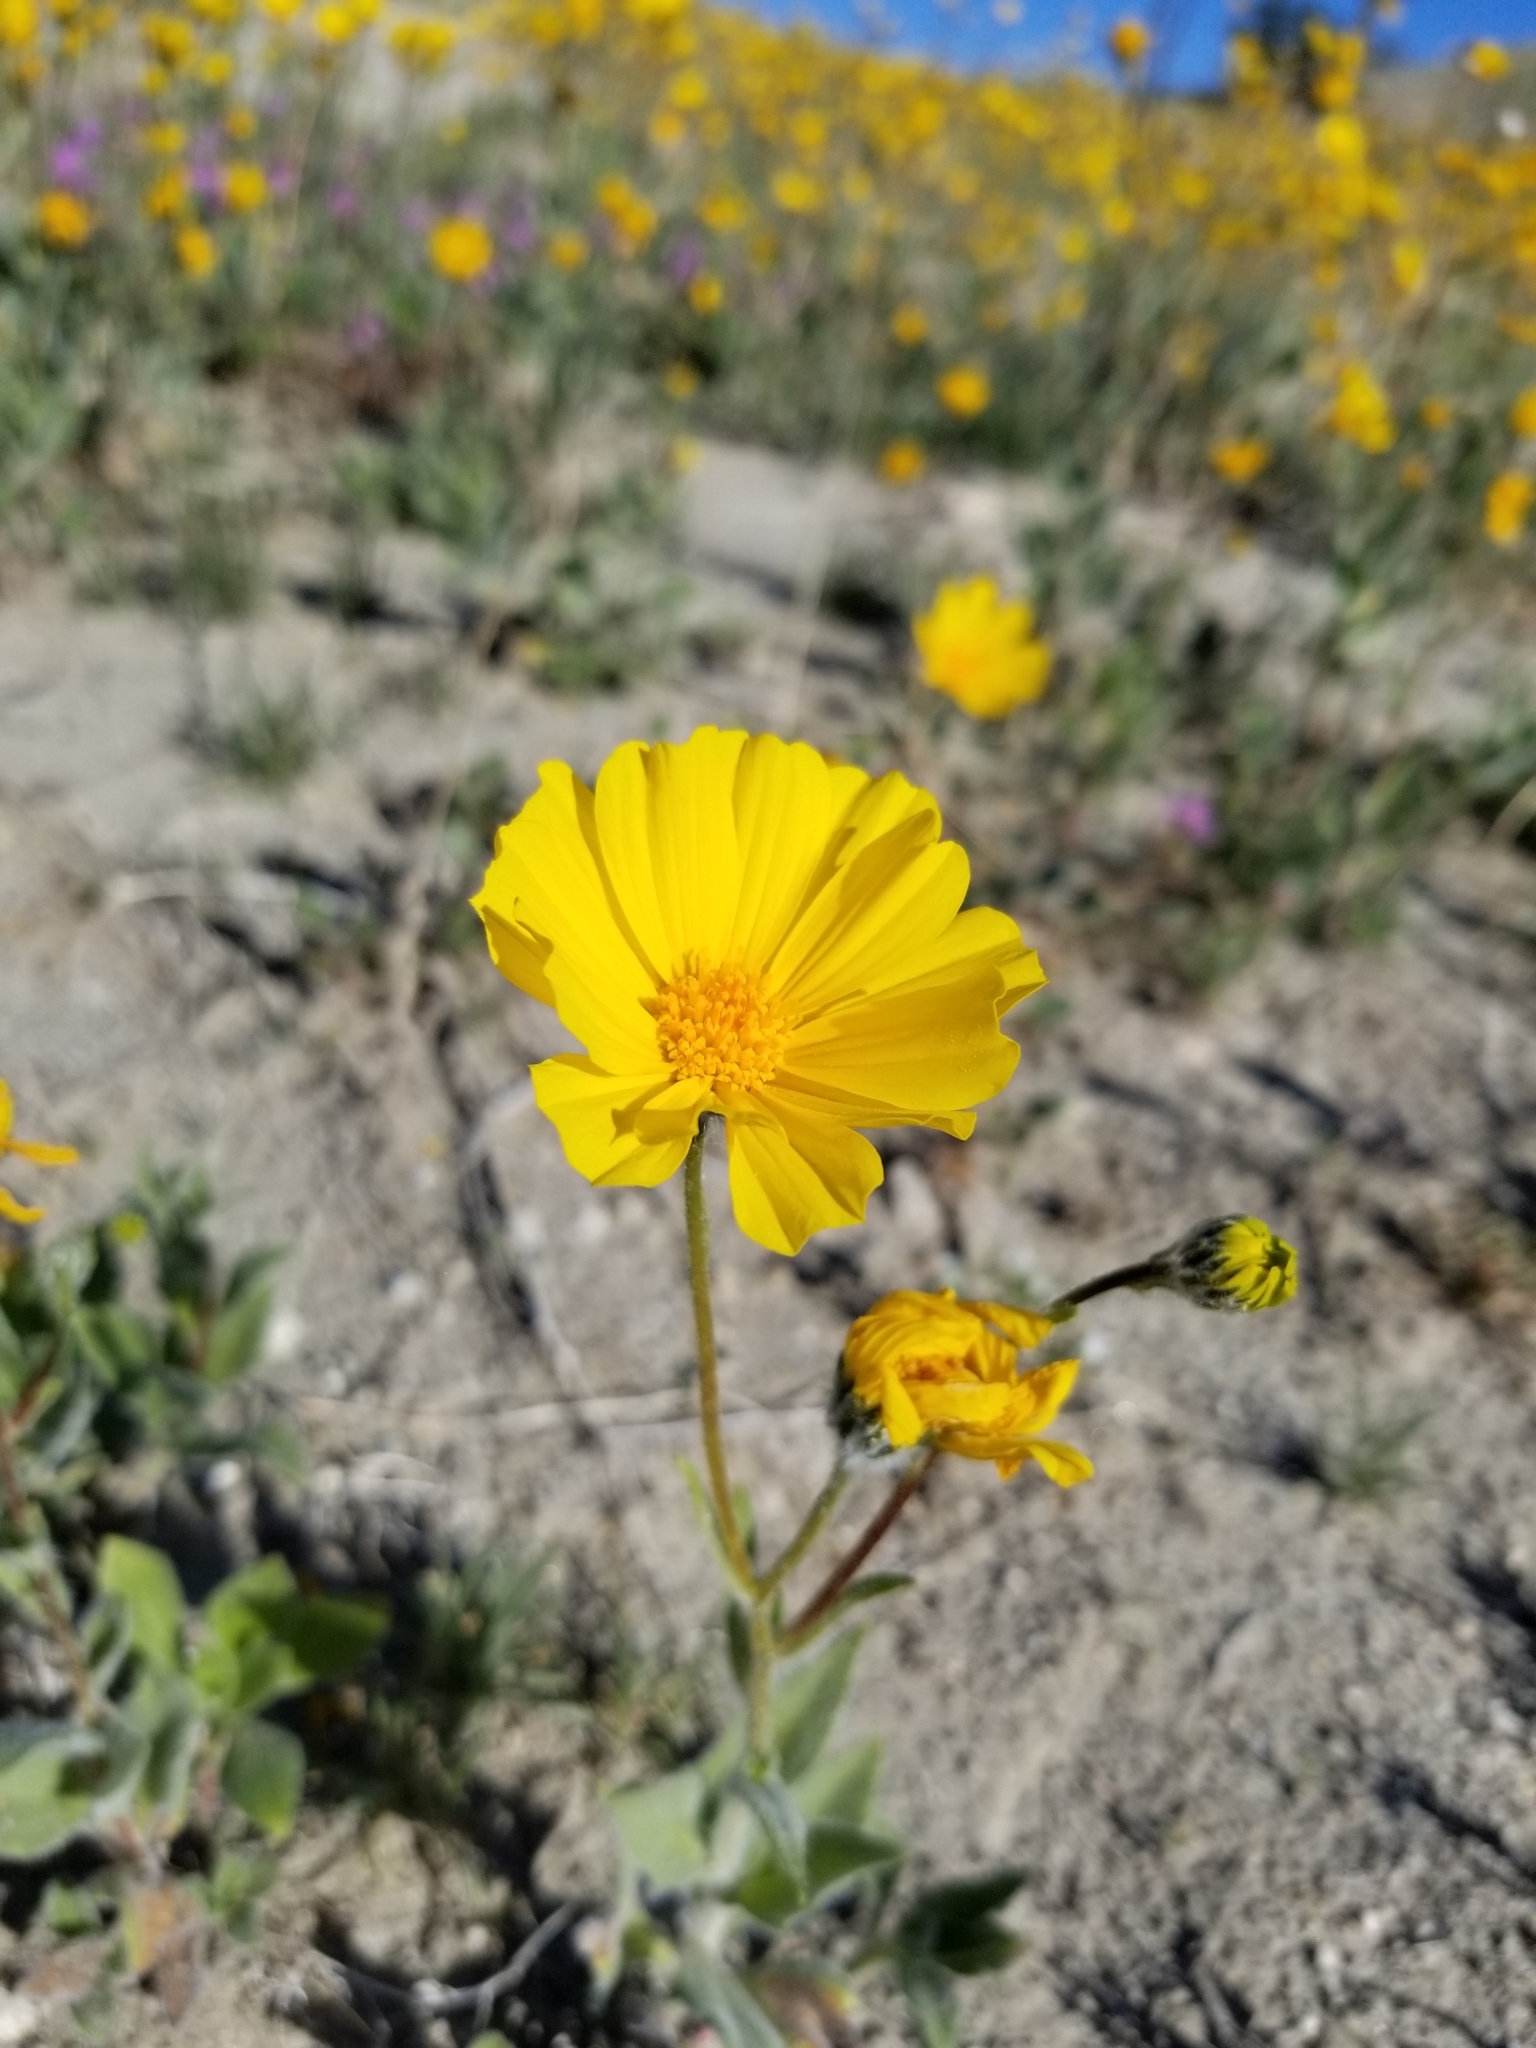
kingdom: Plantae
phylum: Tracheophyta
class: Magnoliopsida
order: Asterales
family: Asteraceae
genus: Geraea
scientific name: Geraea canescens
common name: Desert-gold
